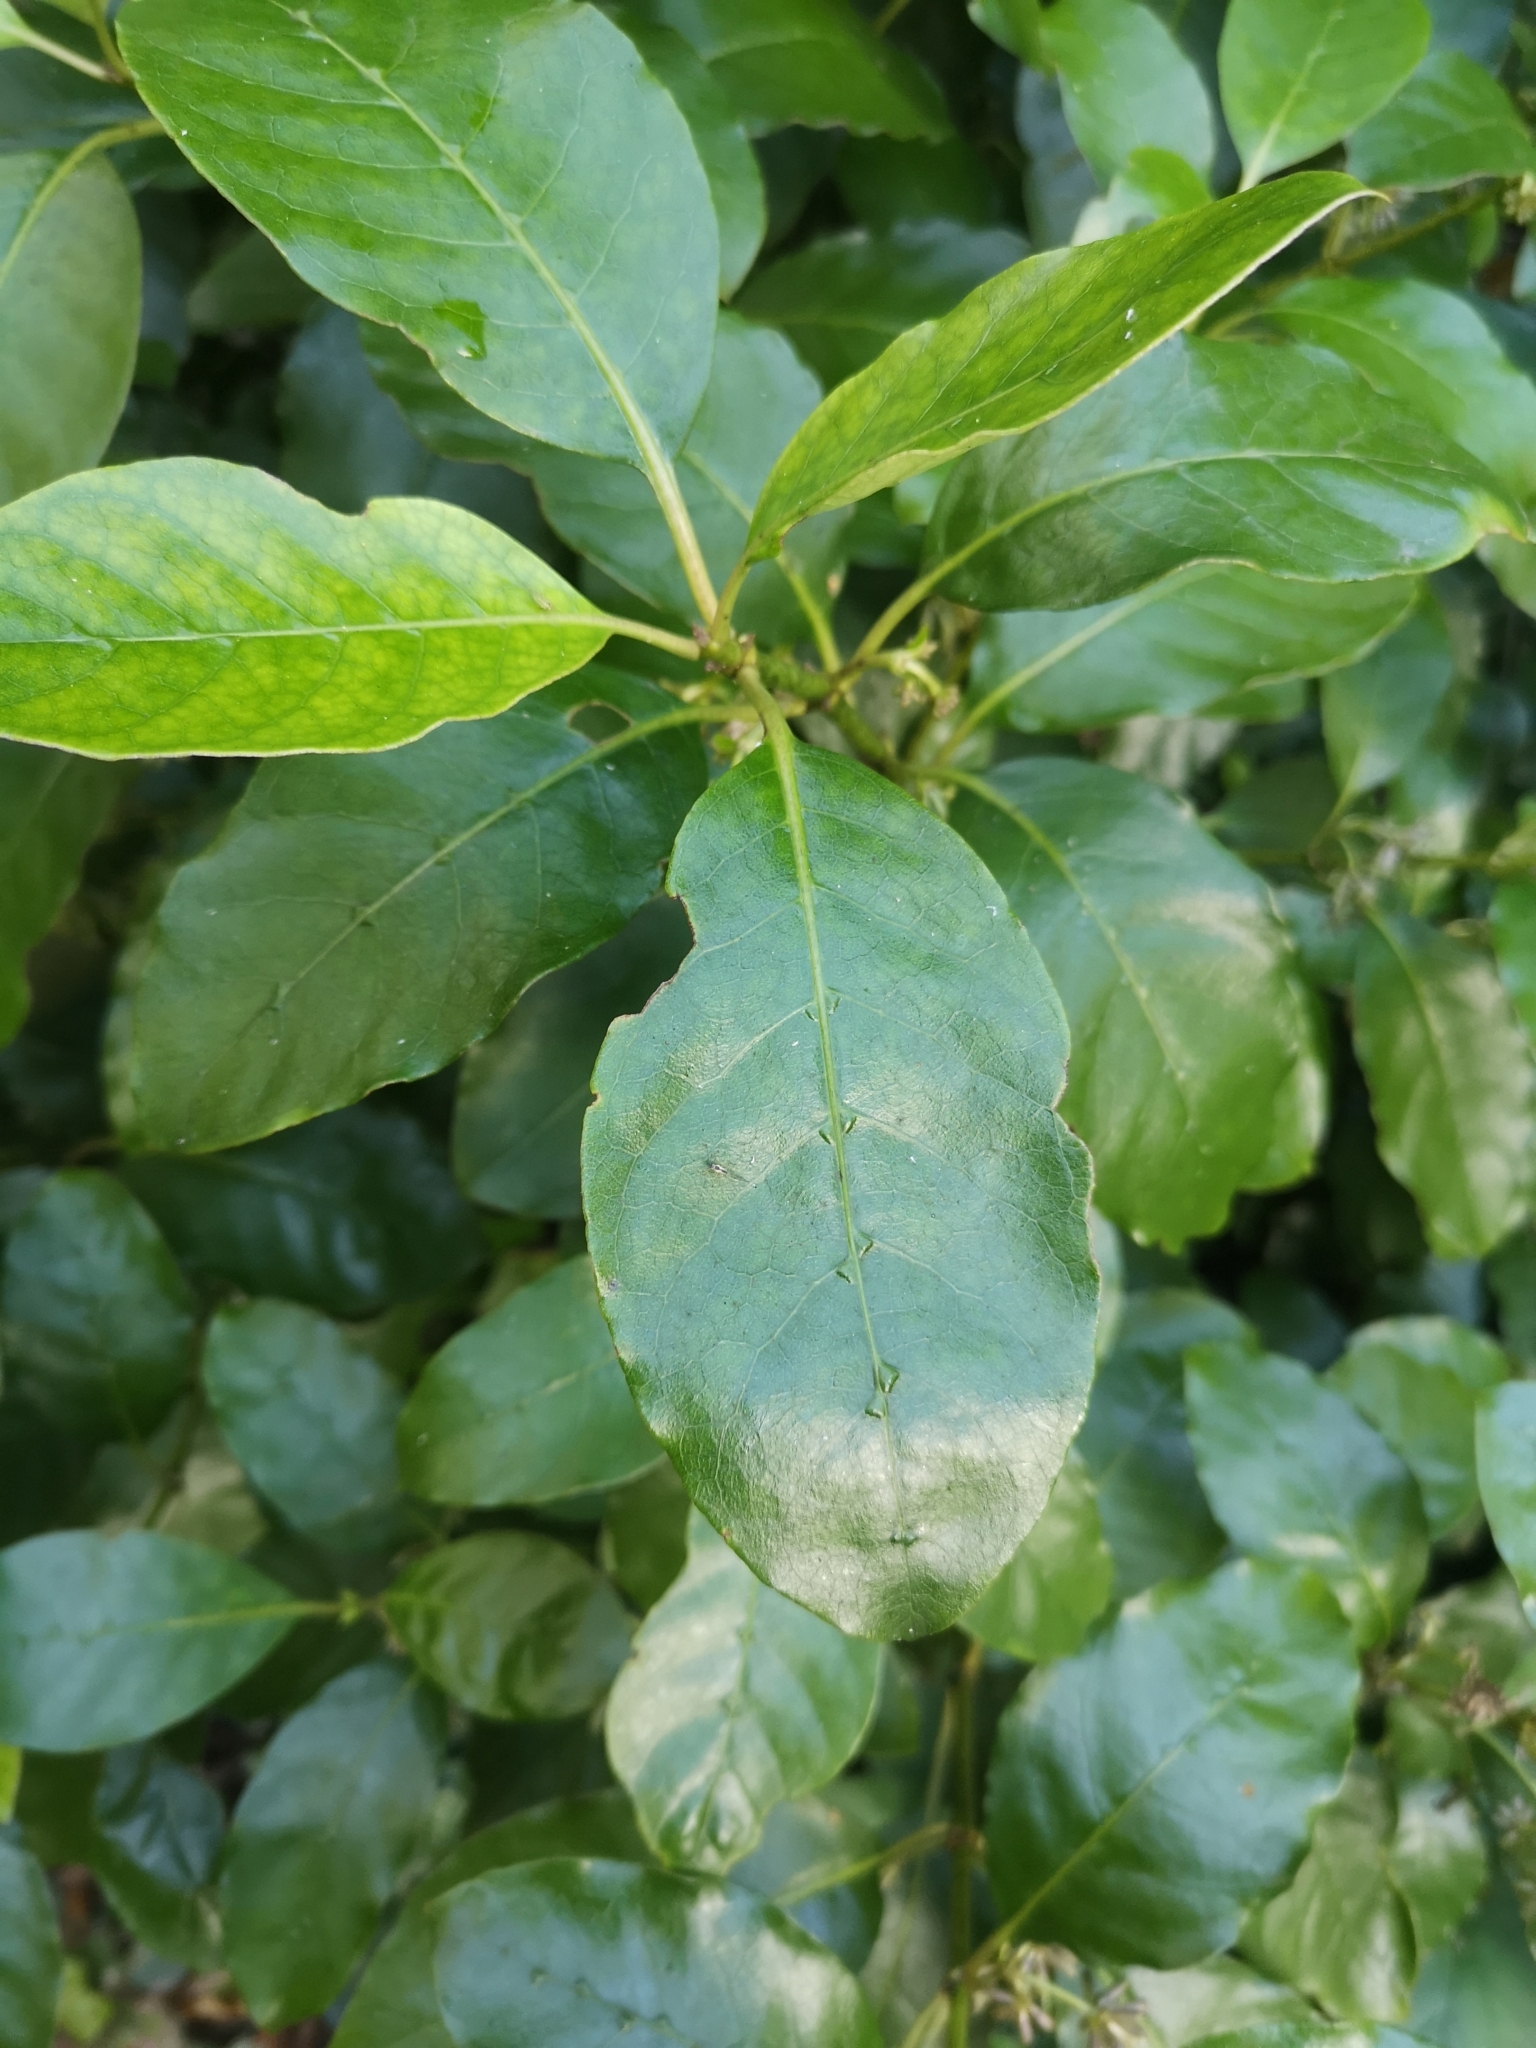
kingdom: Plantae
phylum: Tracheophyta
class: Magnoliopsida
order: Gentianales
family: Rubiaceae
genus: Coprosma
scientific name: Coprosma autumnalis
